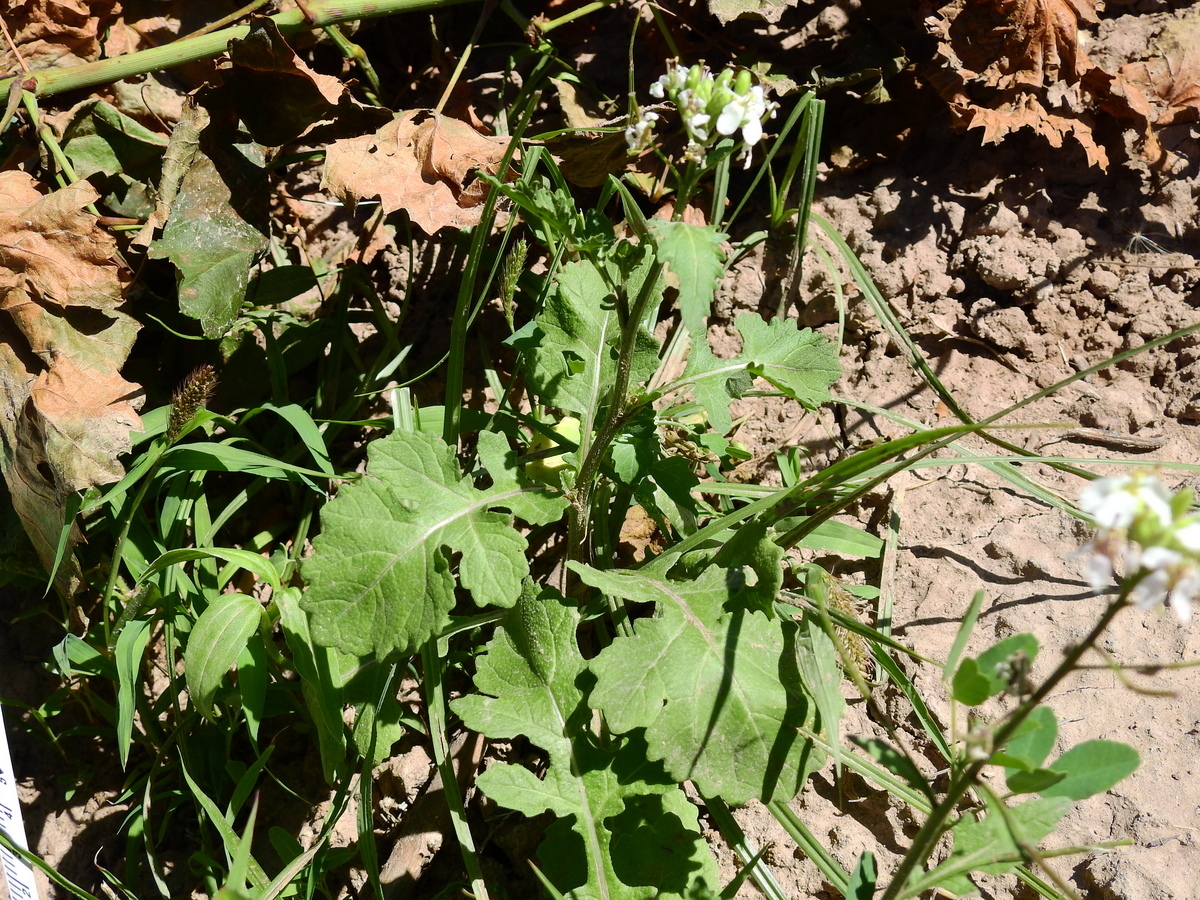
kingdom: Plantae
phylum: Tracheophyta
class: Magnoliopsida
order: Brassicales
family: Brassicaceae
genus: Diplotaxis
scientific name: Diplotaxis erucoides
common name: White rocket
